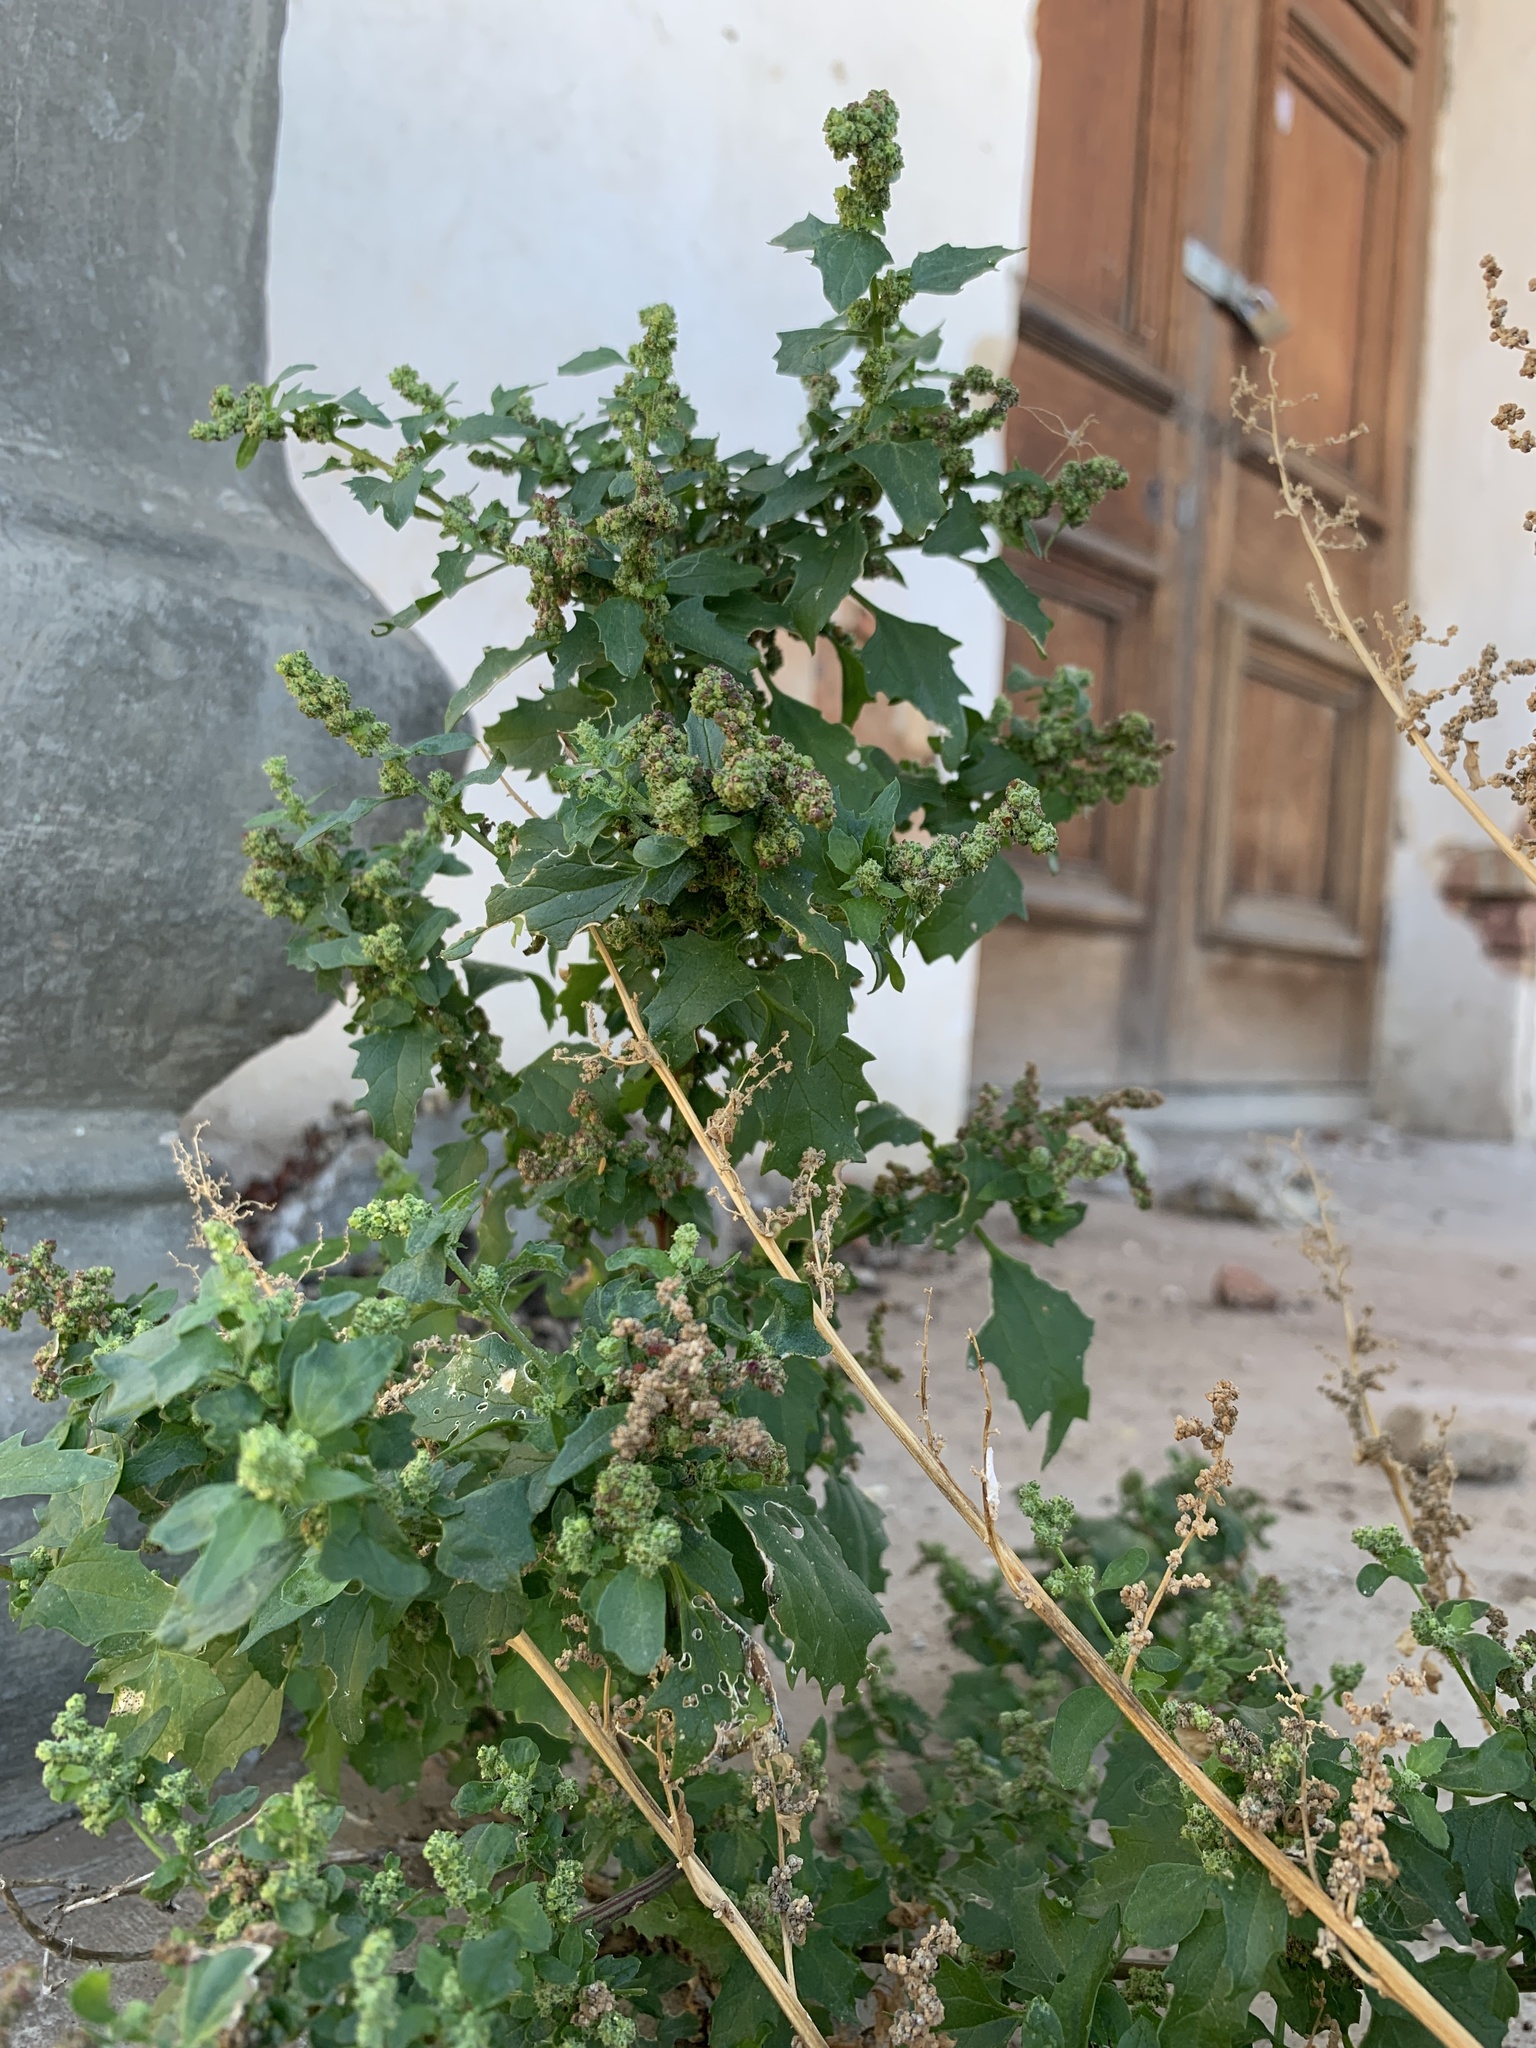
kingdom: Plantae
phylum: Tracheophyta
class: Magnoliopsida
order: Caryophyllales
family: Amaranthaceae
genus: Chenopodiastrum
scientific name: Chenopodiastrum murale
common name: Sowbane
